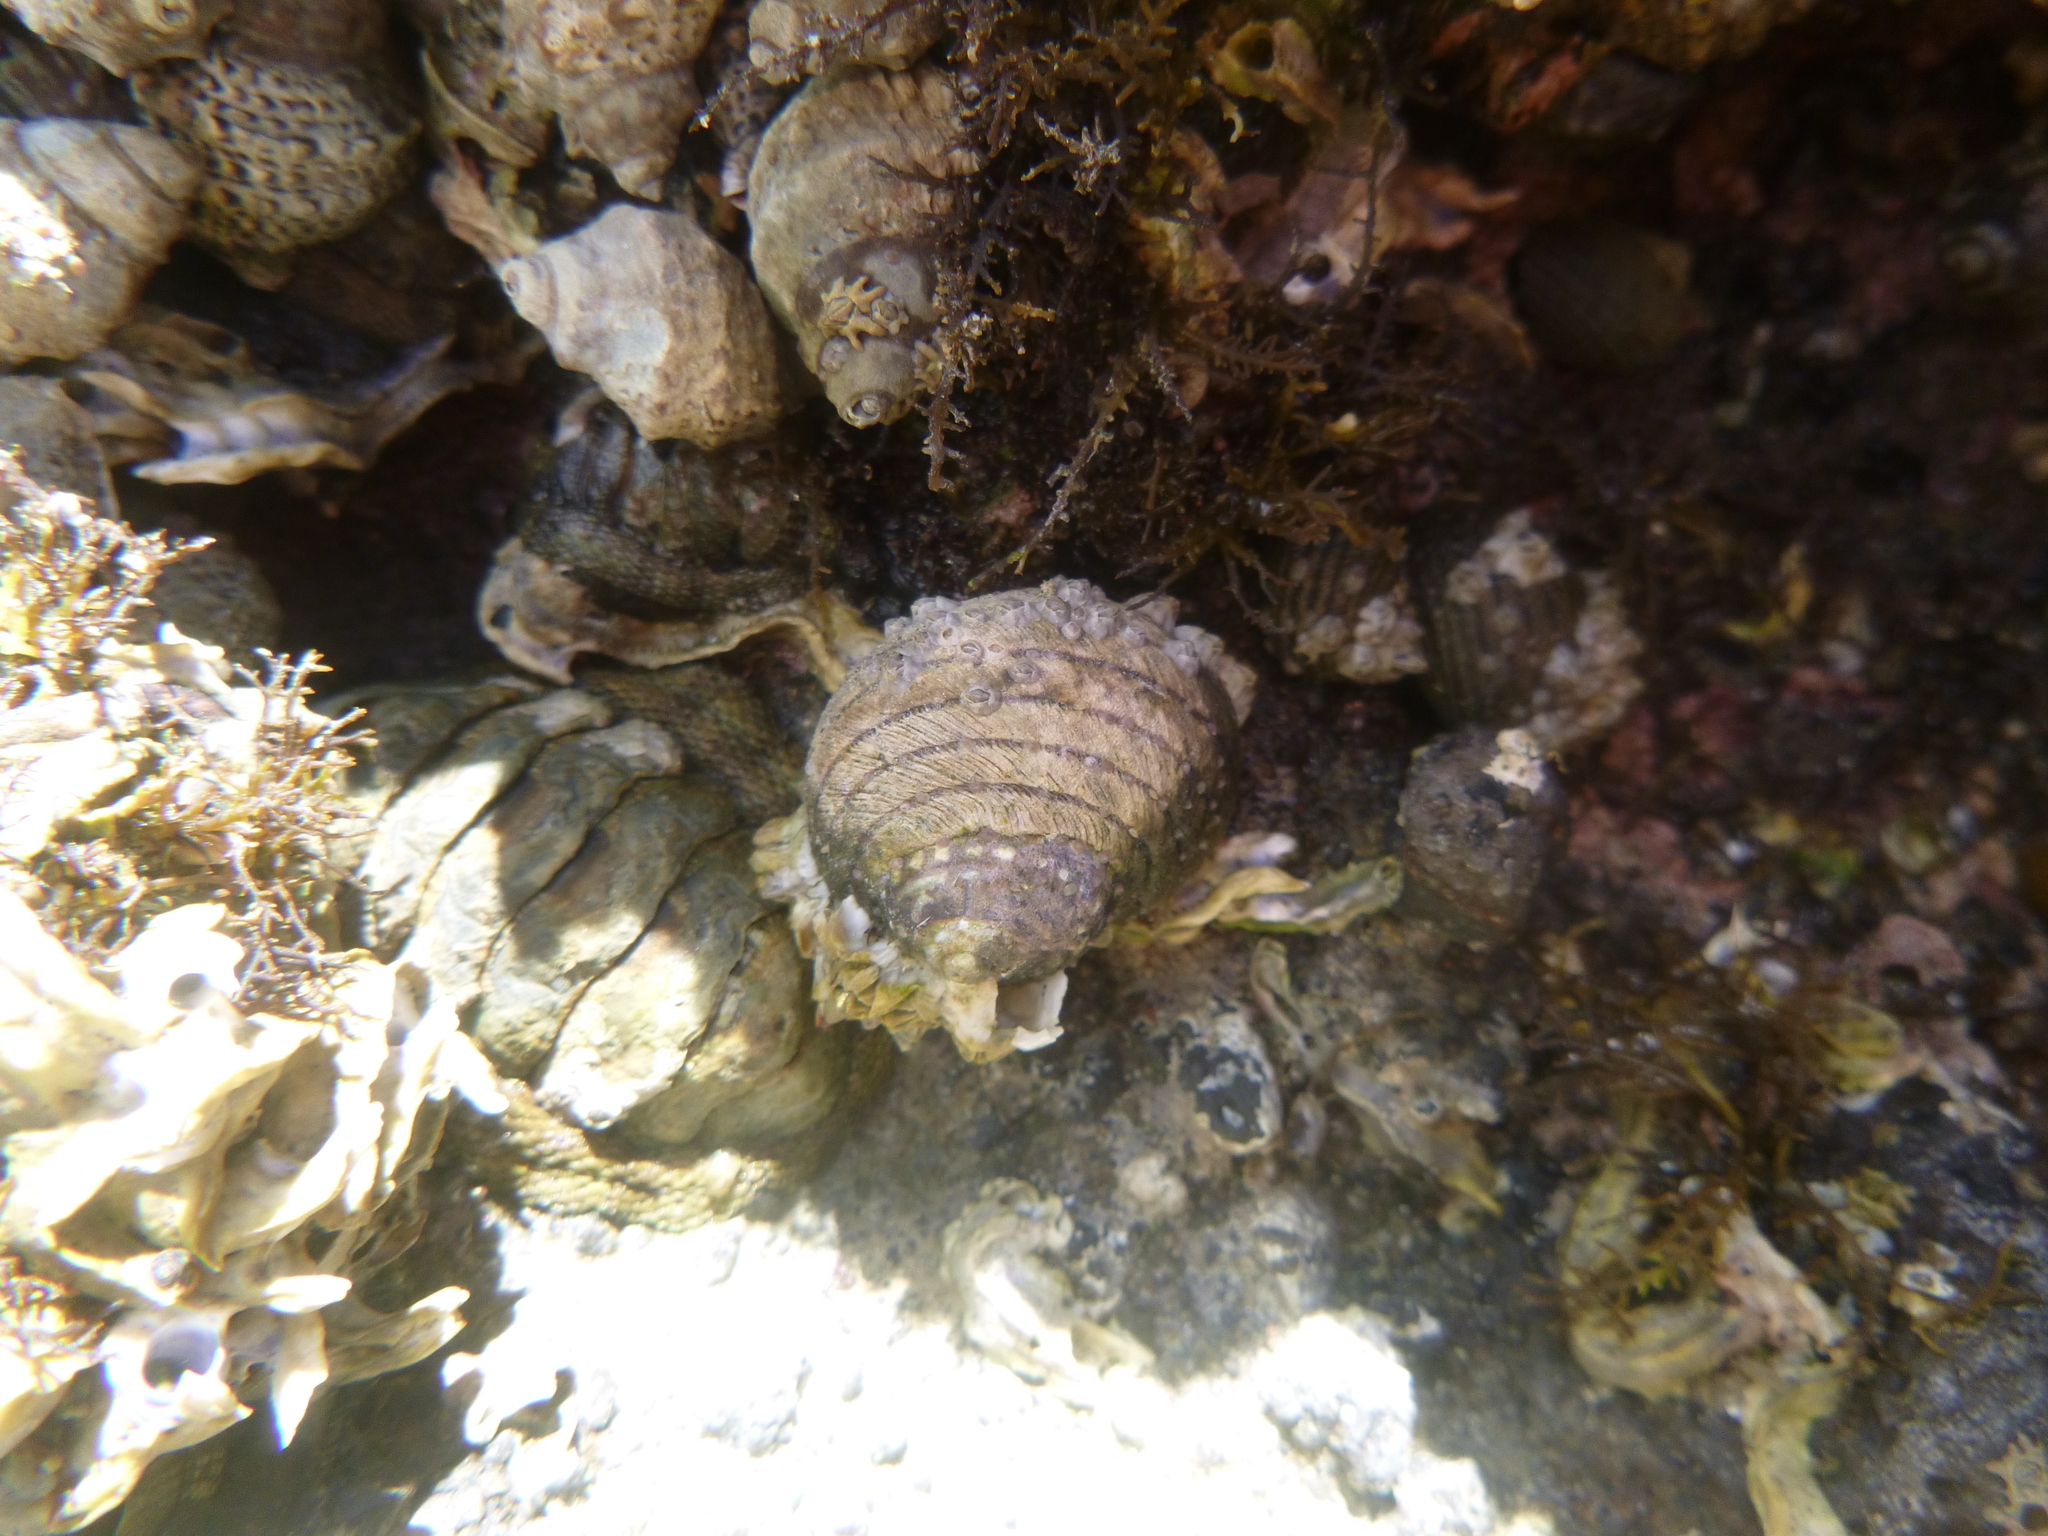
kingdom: Animalia
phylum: Mollusca
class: Gastropoda
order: Trochida
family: Trochidae
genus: Diloma
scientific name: Diloma aethiops
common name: Scorched monodont
